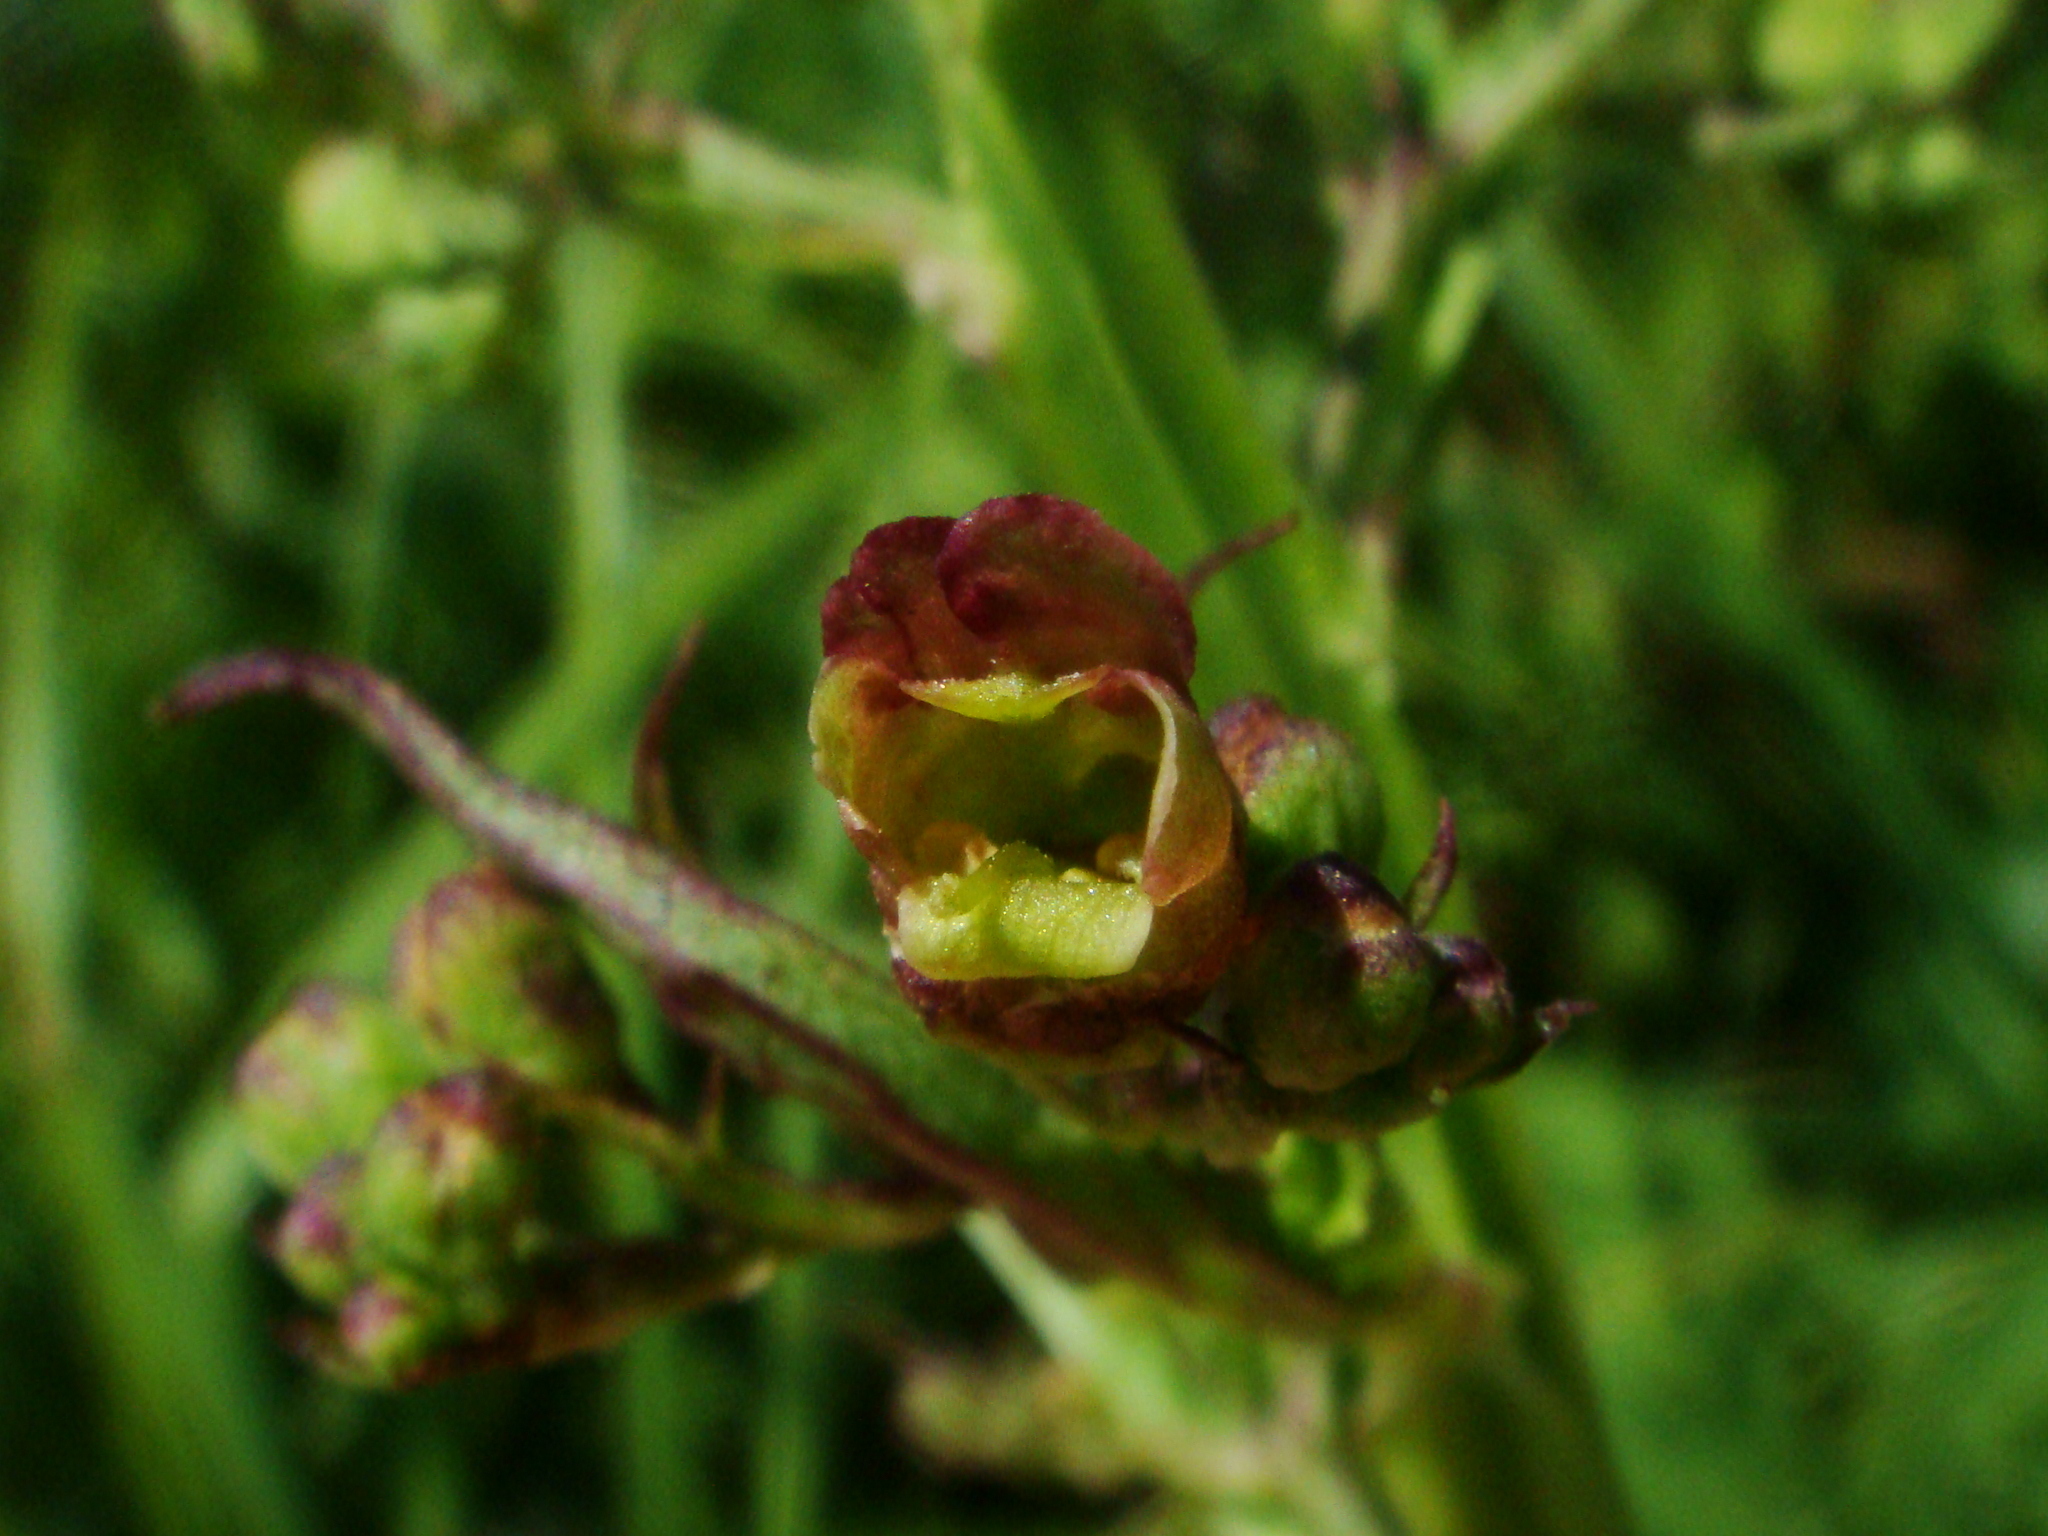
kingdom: Plantae
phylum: Tracheophyta
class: Magnoliopsida
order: Lamiales
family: Scrophulariaceae
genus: Scrophularia
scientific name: Scrophularia umbrosa
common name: Green figwort
